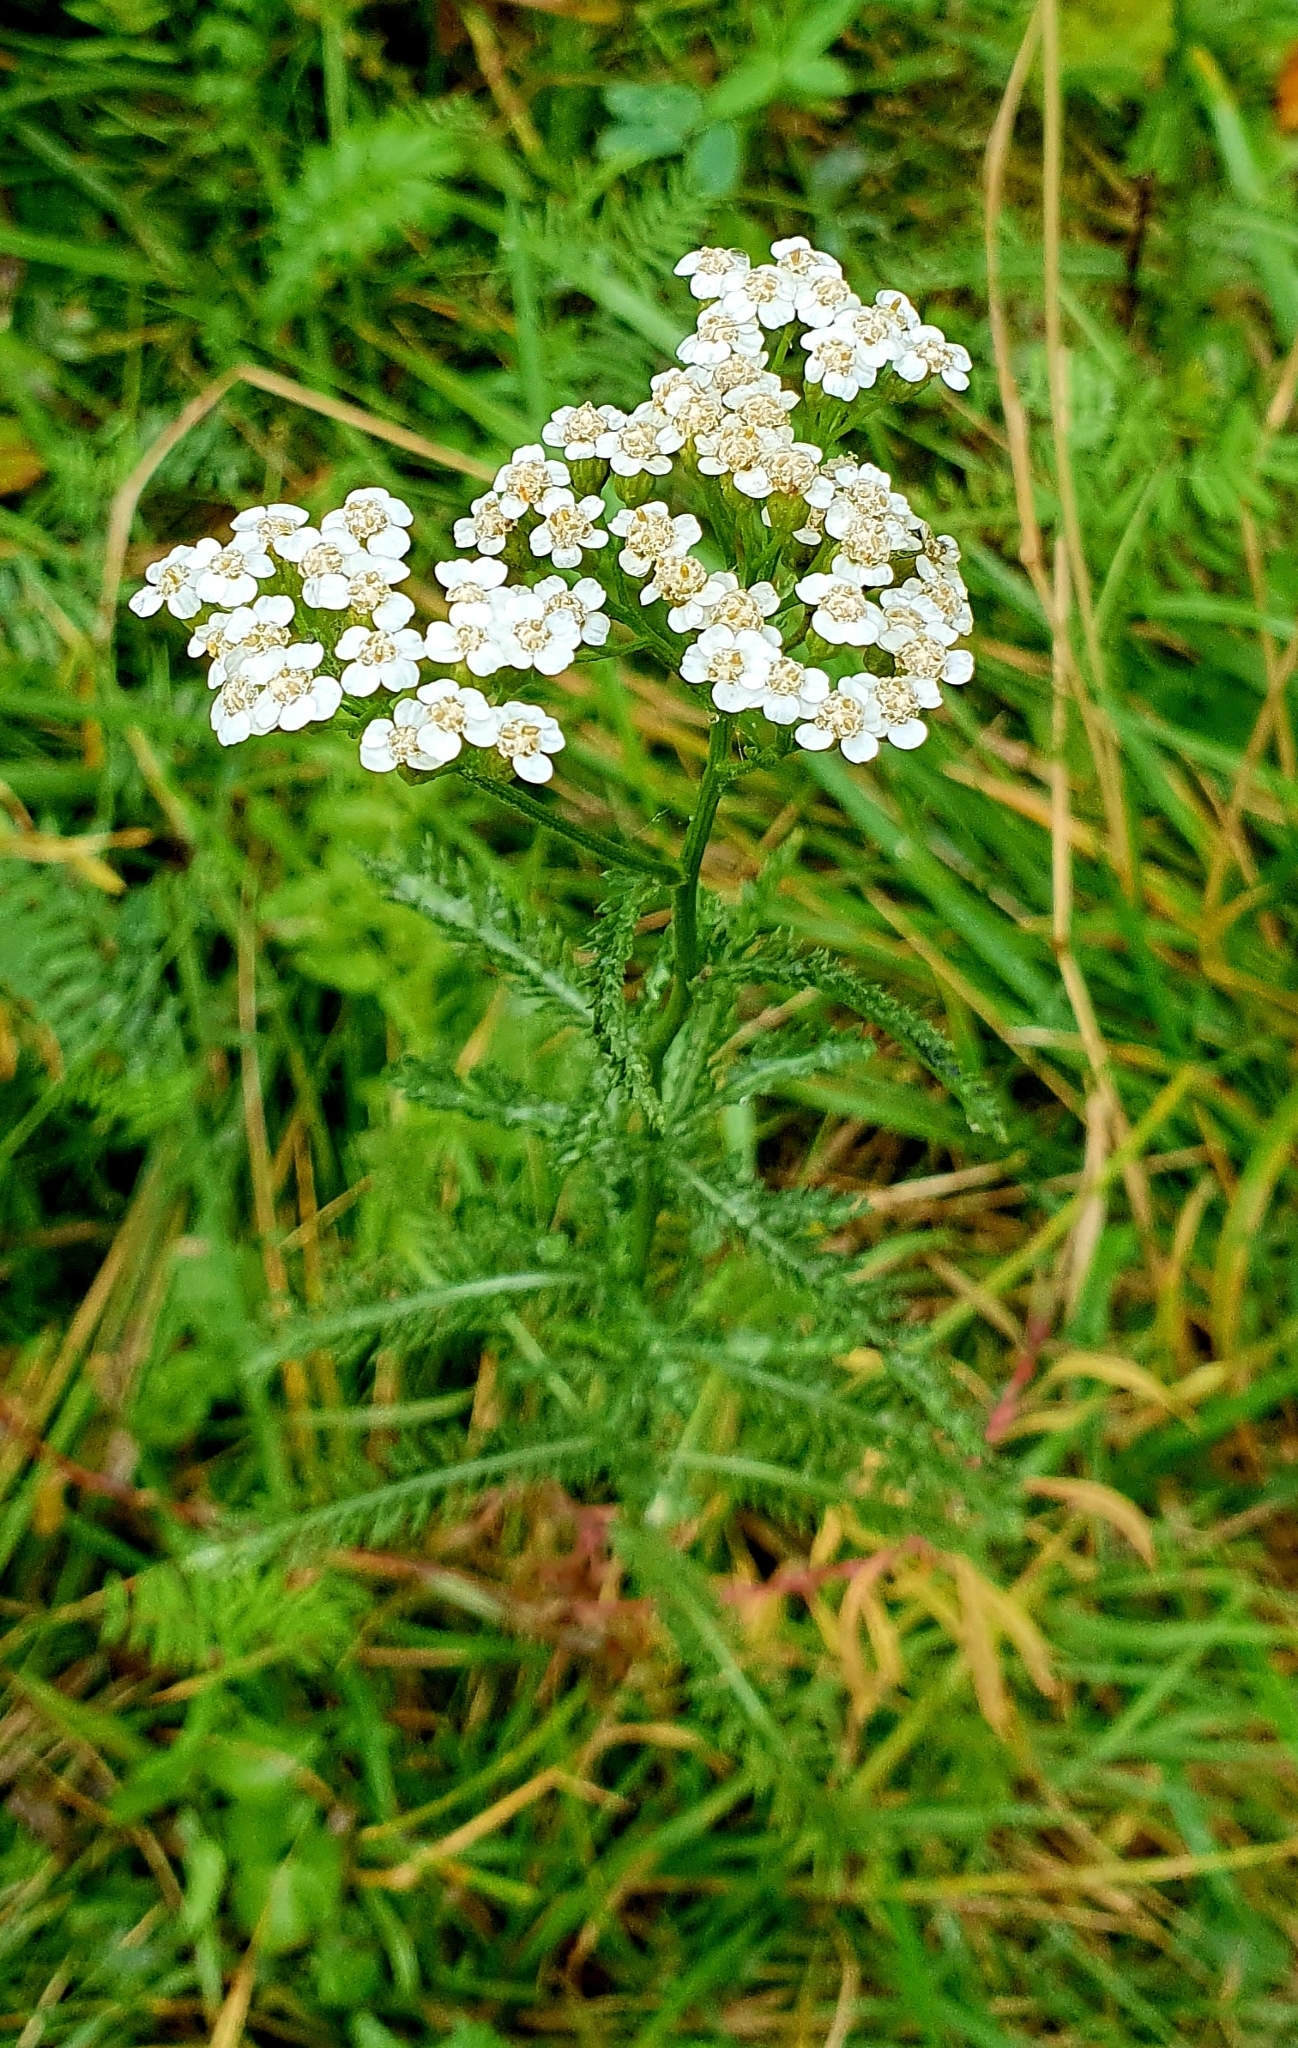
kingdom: Plantae
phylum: Tracheophyta
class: Magnoliopsida
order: Asterales
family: Asteraceae
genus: Achillea
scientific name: Achillea millefolium
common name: Yarrow
